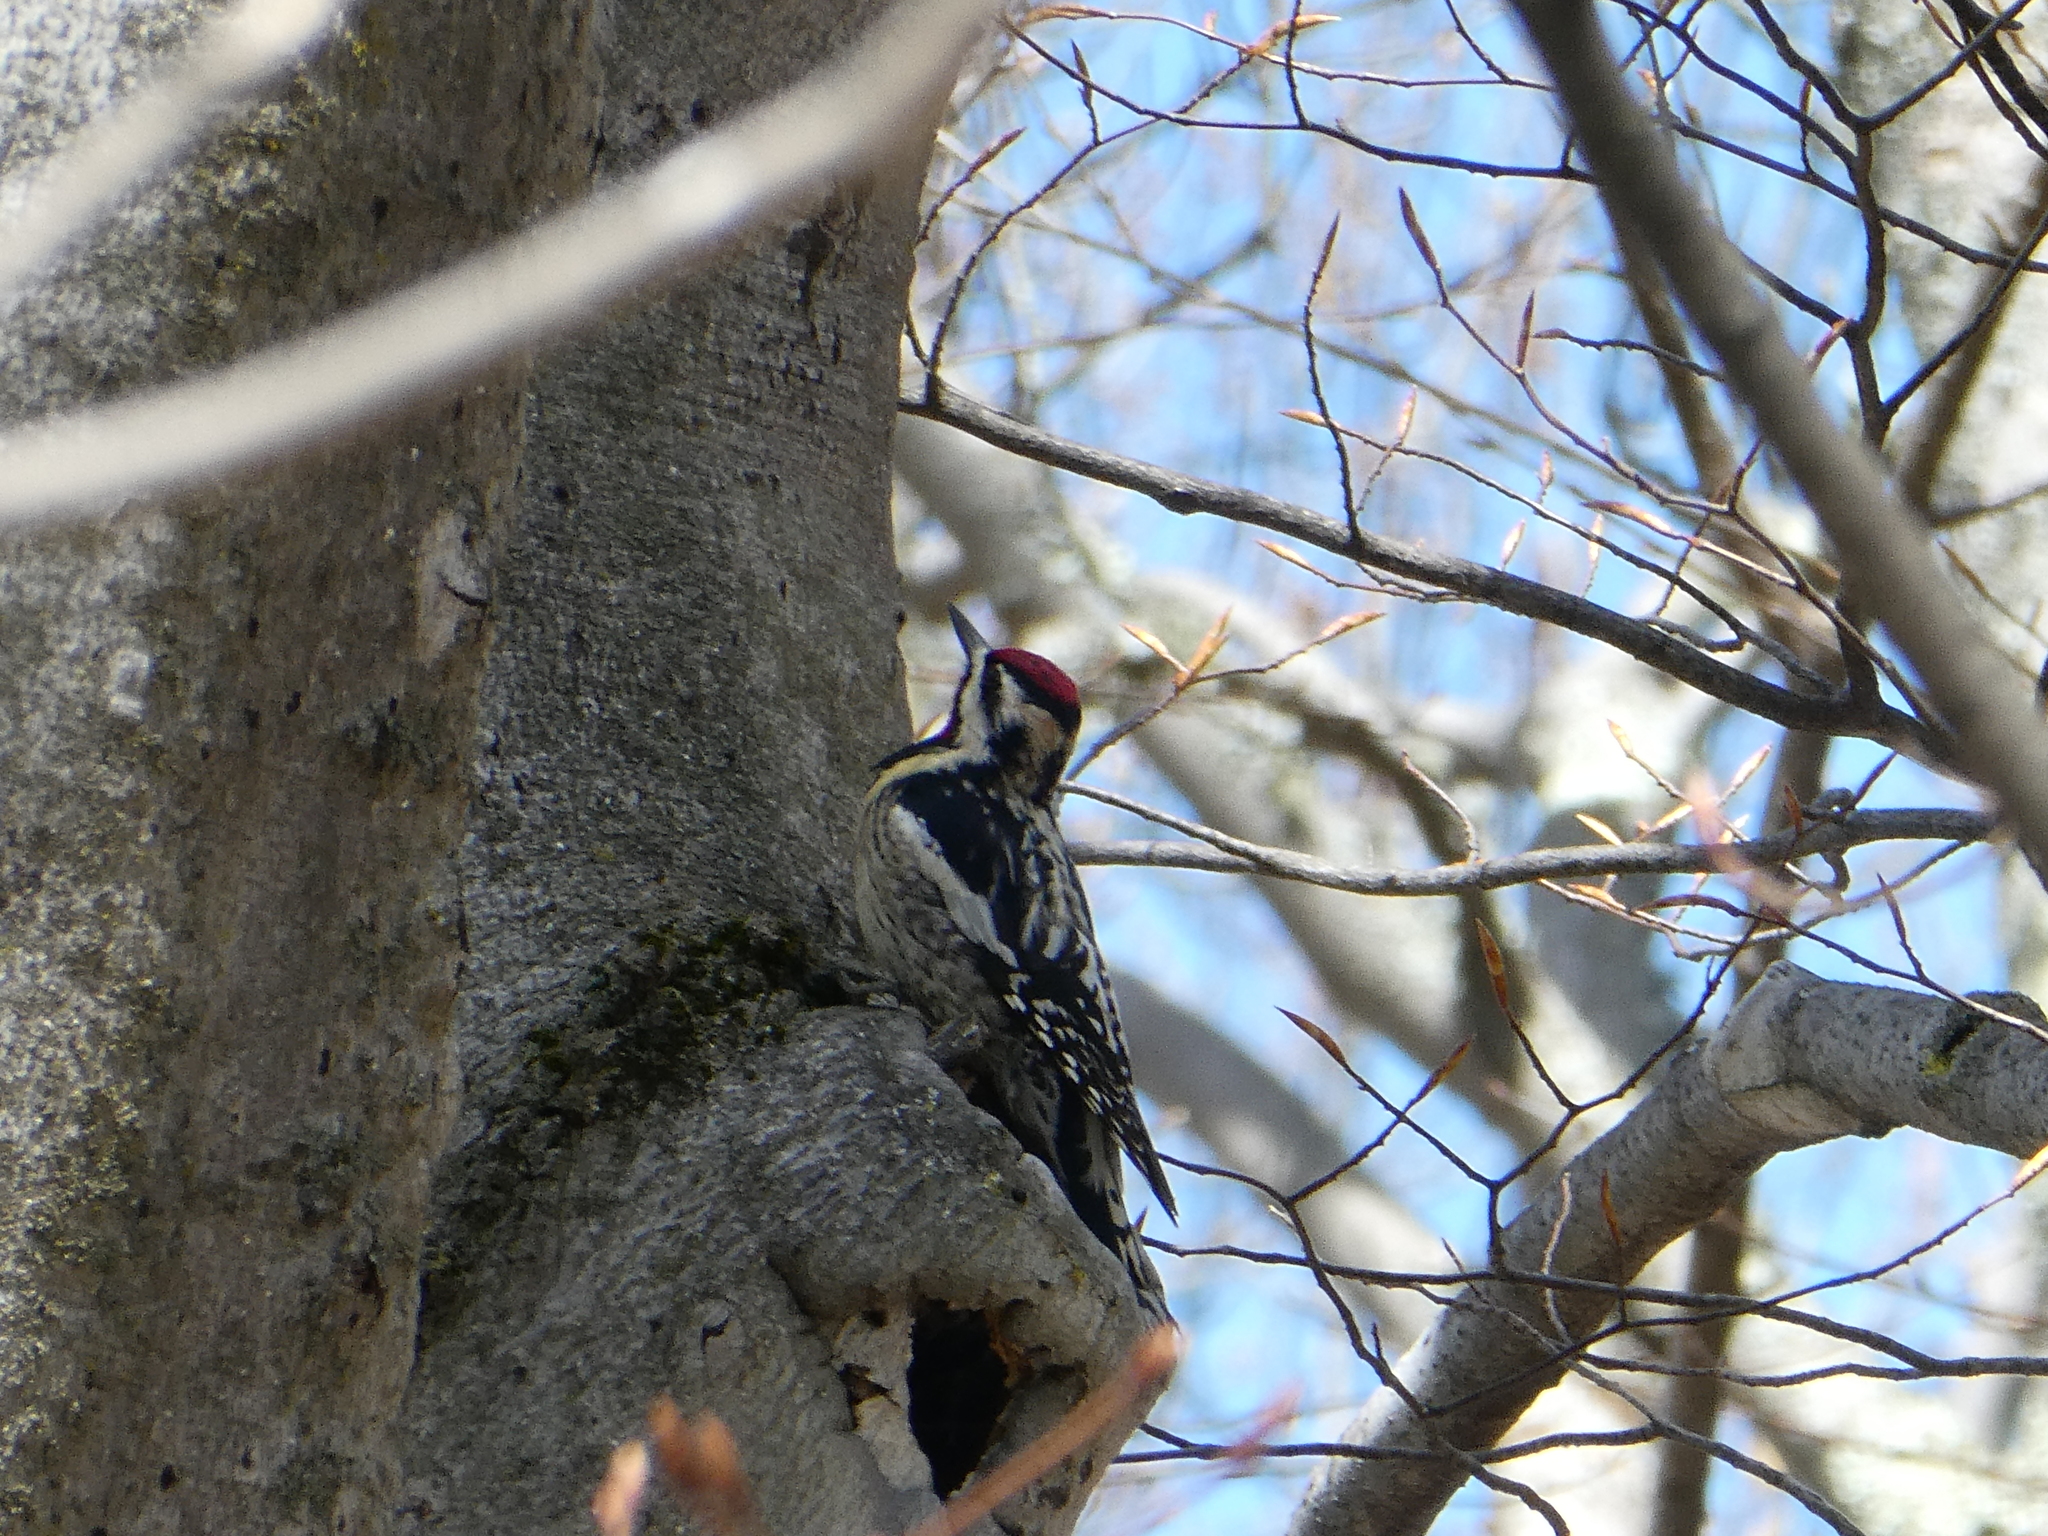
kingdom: Animalia
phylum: Chordata
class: Aves
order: Piciformes
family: Picidae
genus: Sphyrapicus
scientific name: Sphyrapicus varius
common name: Yellow-bellied sapsucker
